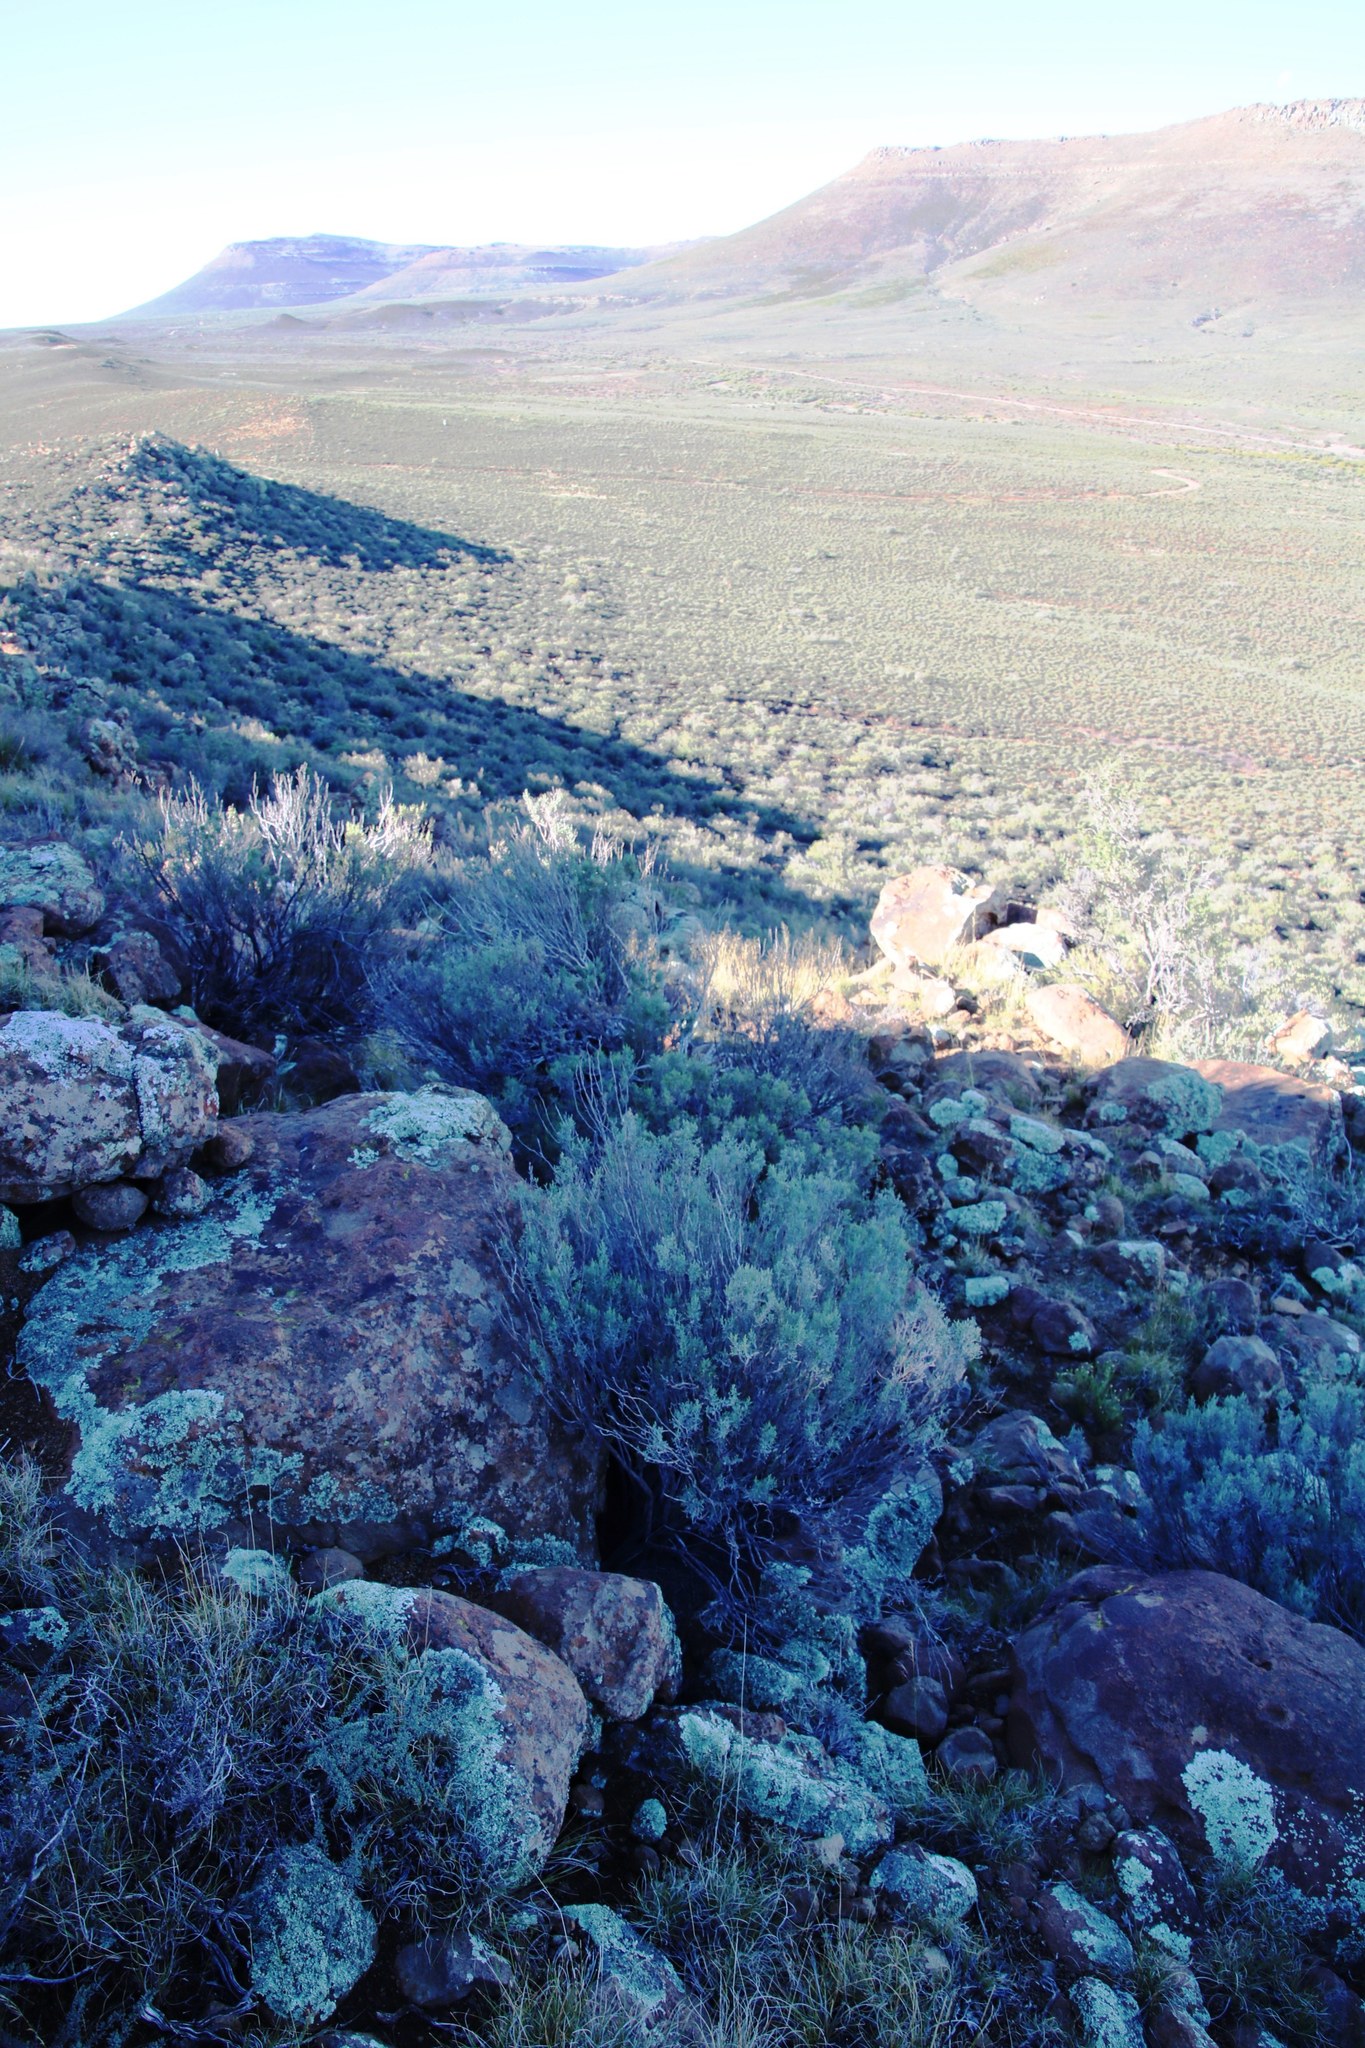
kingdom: Plantae
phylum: Tracheophyta
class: Magnoliopsida
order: Asterales
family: Asteraceae
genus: Dicerothamnus
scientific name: Dicerothamnus rhinocerotis
